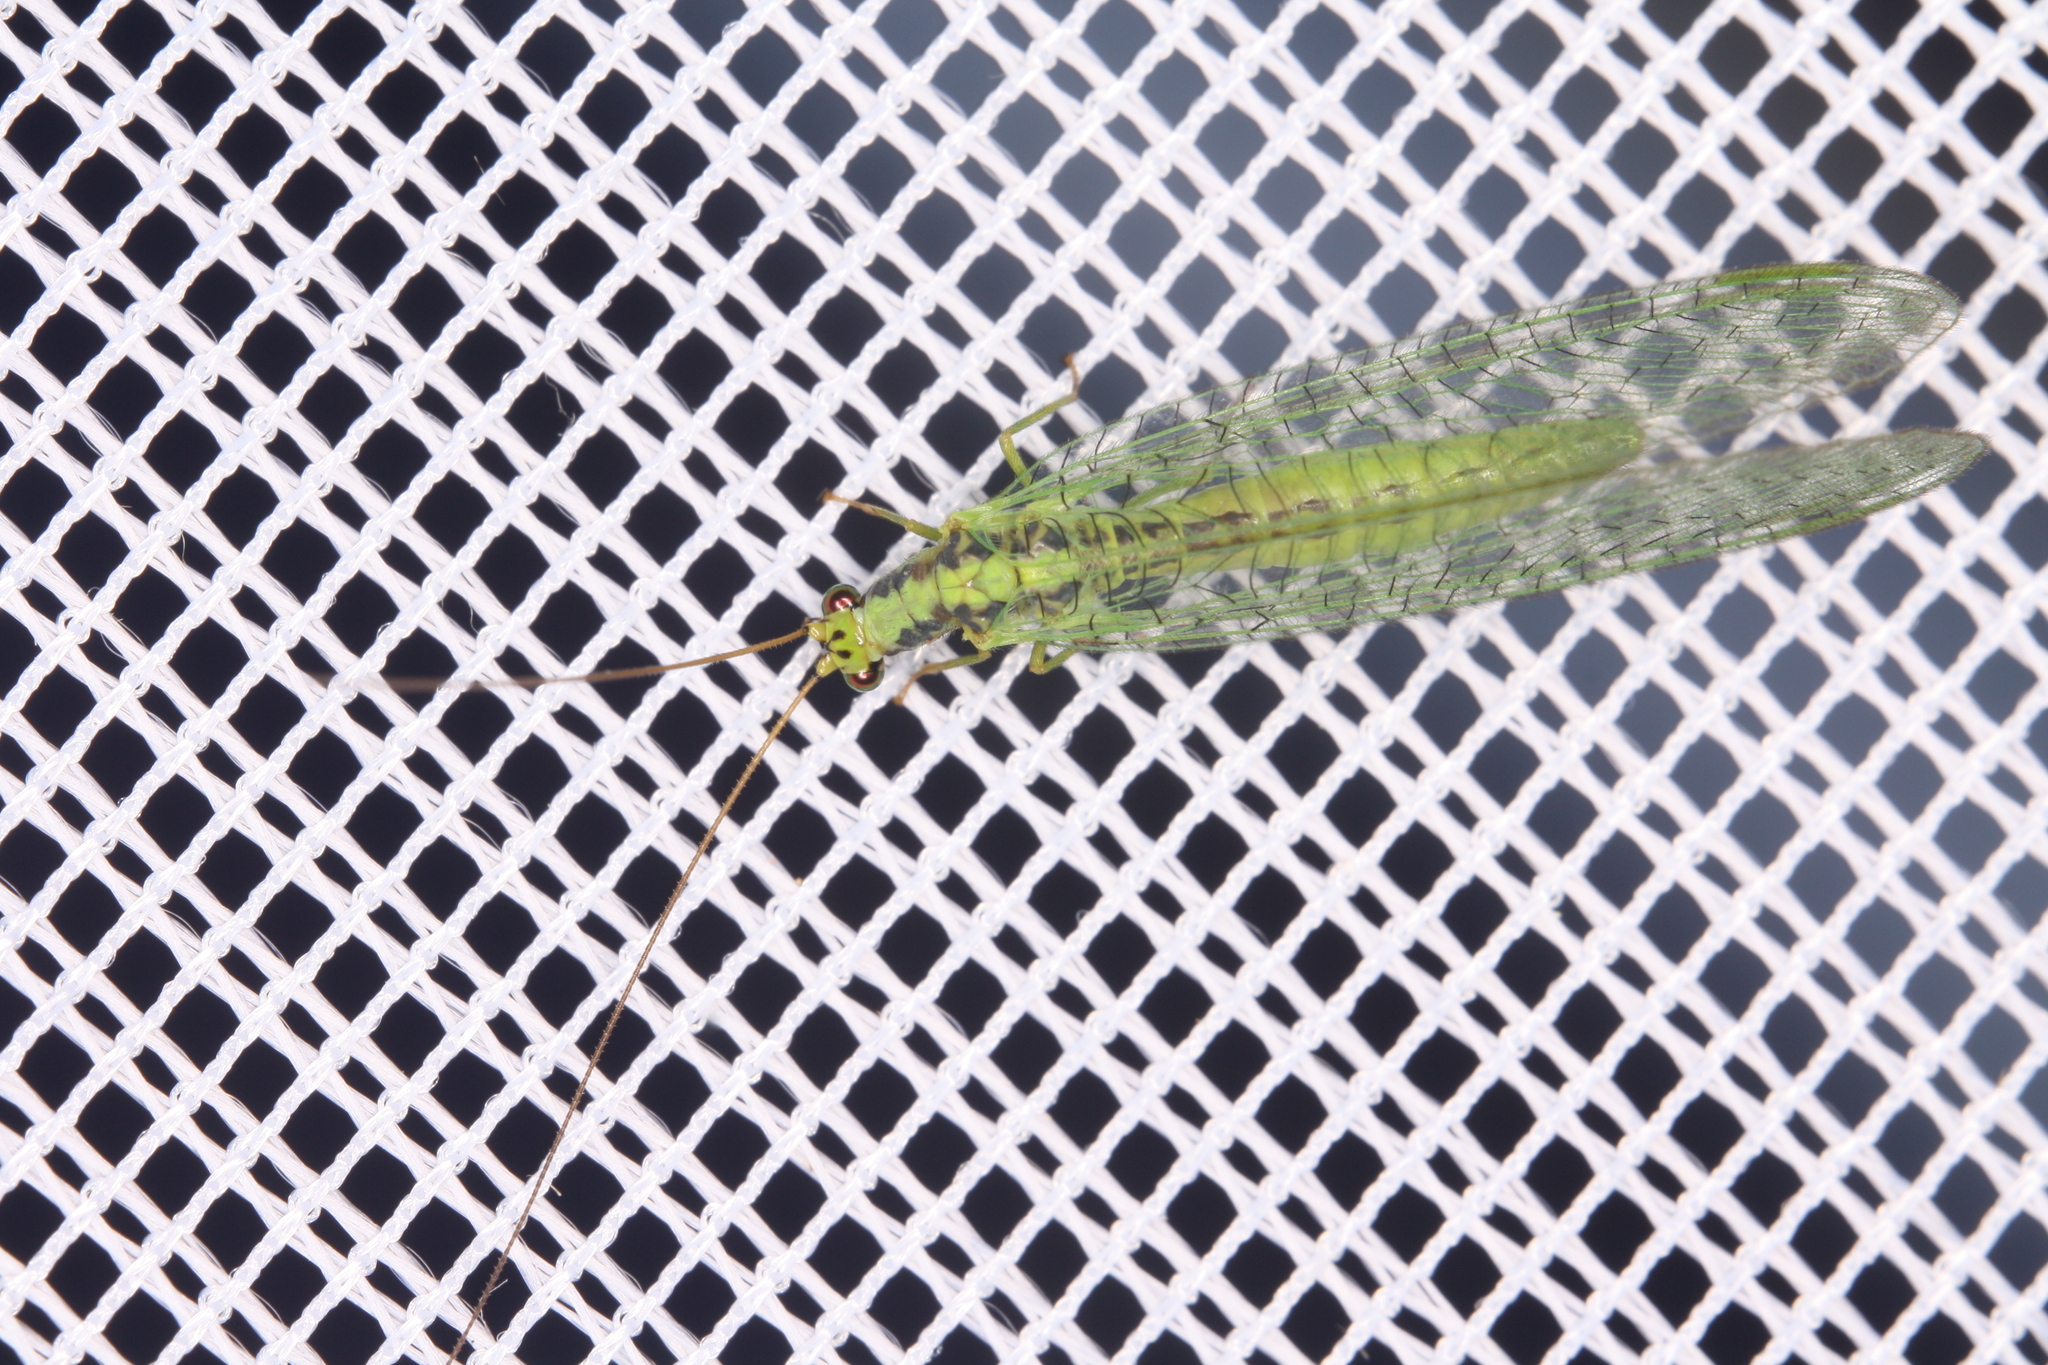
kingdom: Animalia
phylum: Arthropoda
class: Insecta
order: Neuroptera
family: Chrysopidae
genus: Chrysopa
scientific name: Chrysopa walkeri
